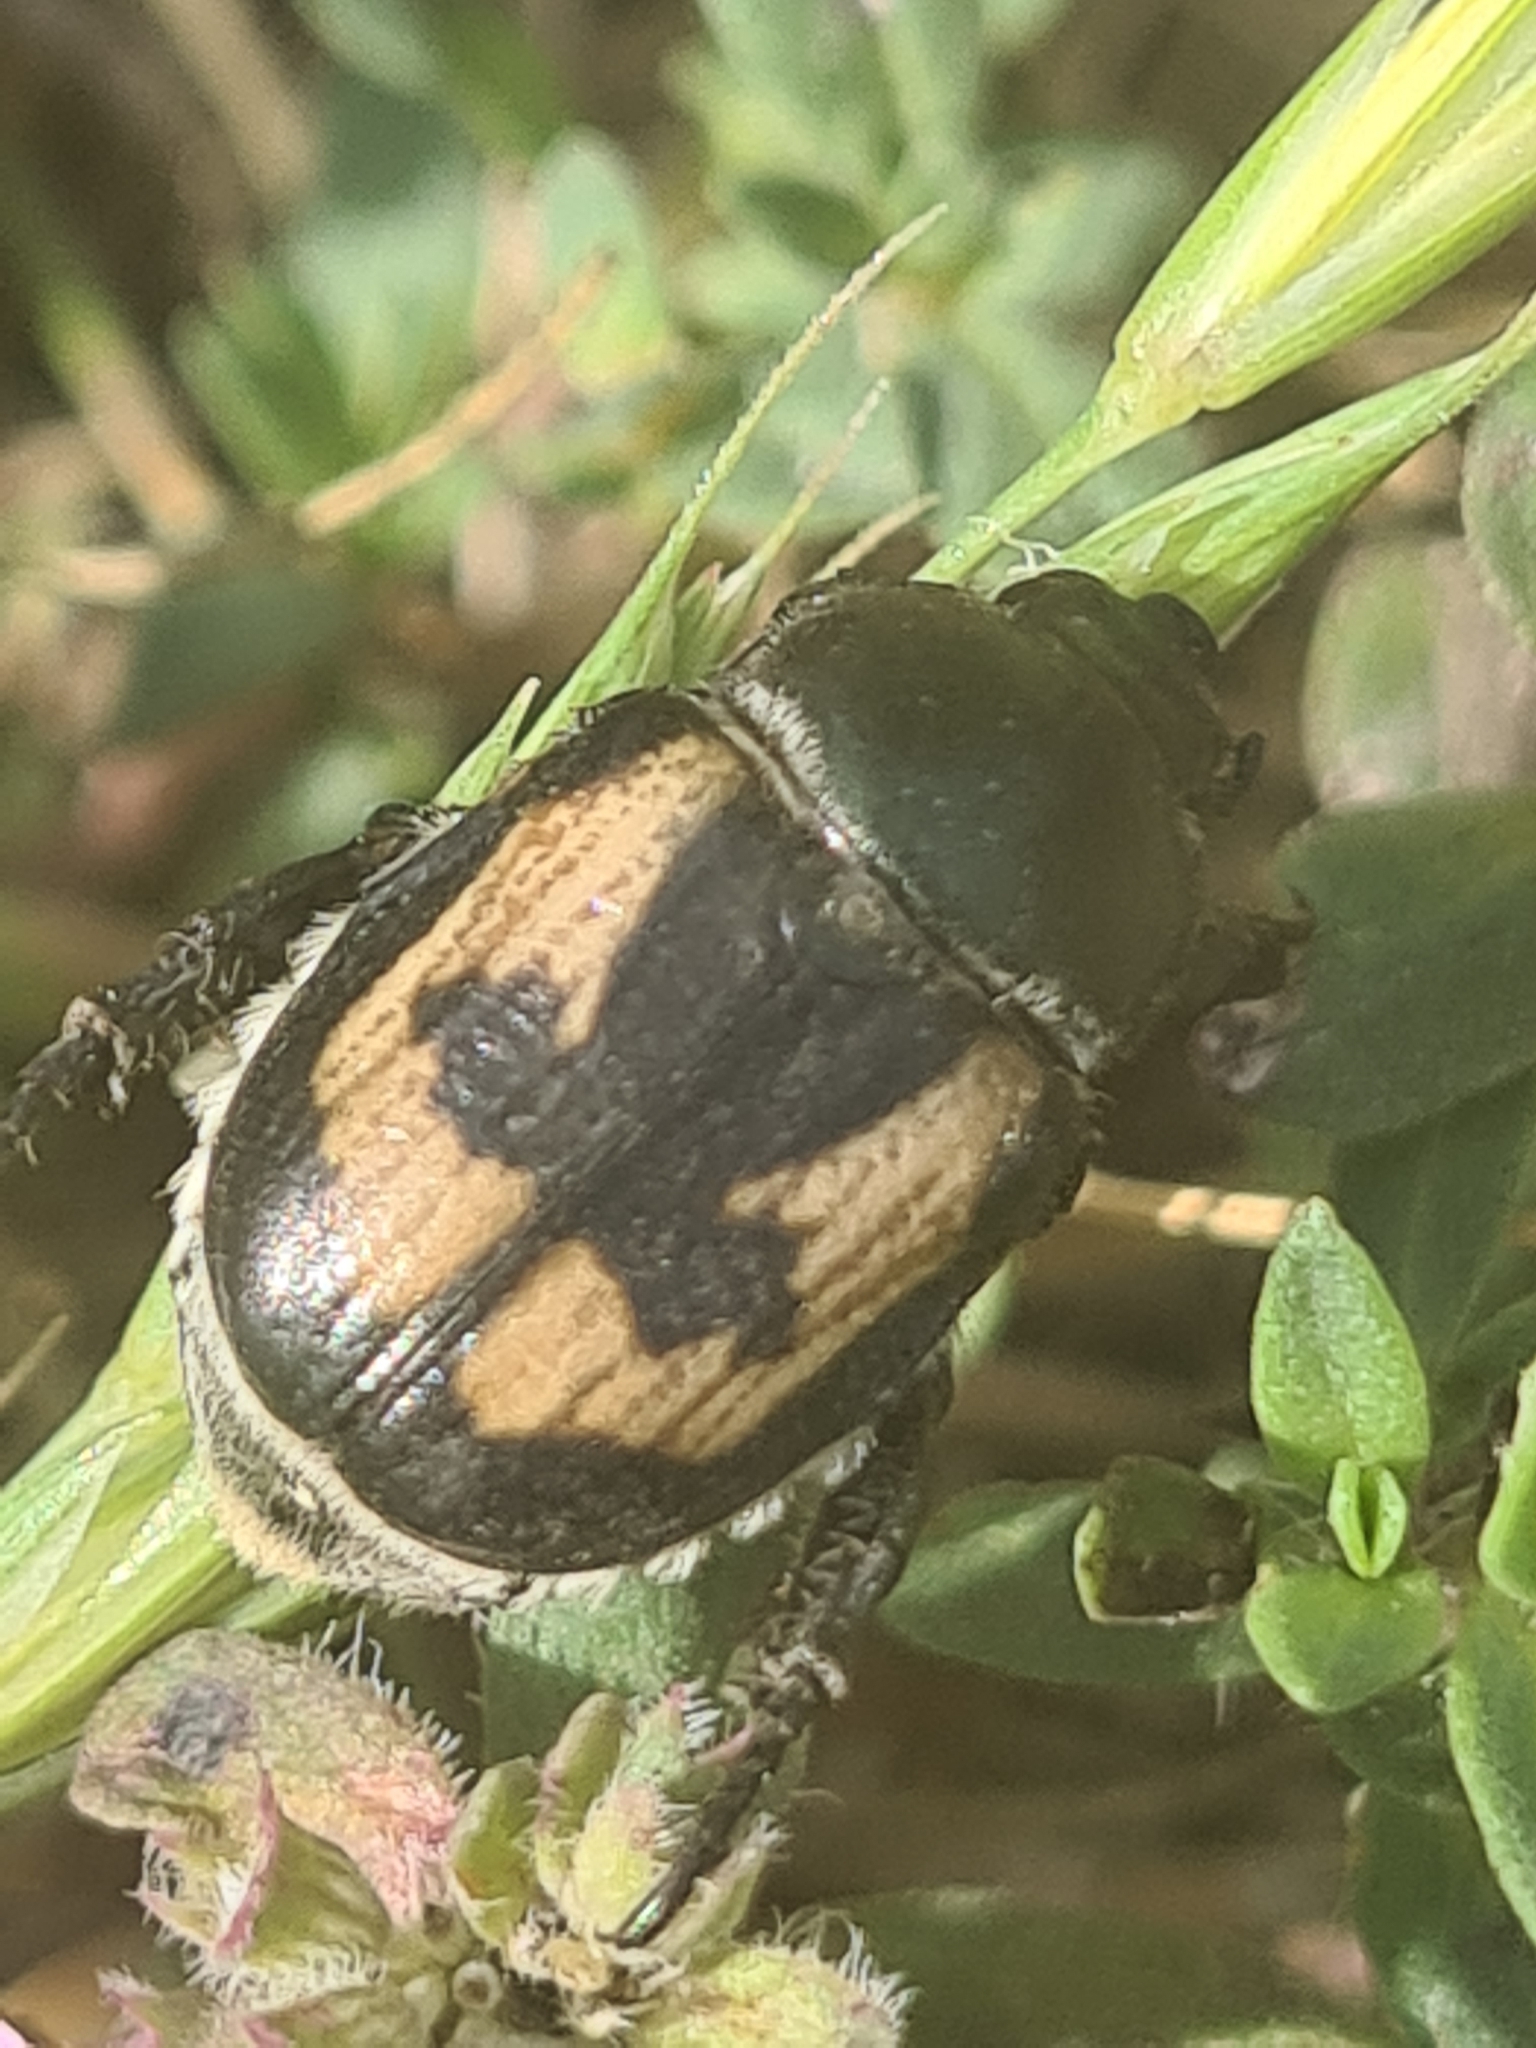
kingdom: Animalia
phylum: Arthropoda
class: Insecta
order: Coleoptera
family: Scarabaeidae
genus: Anisoplia
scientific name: Anisoplia agricola
